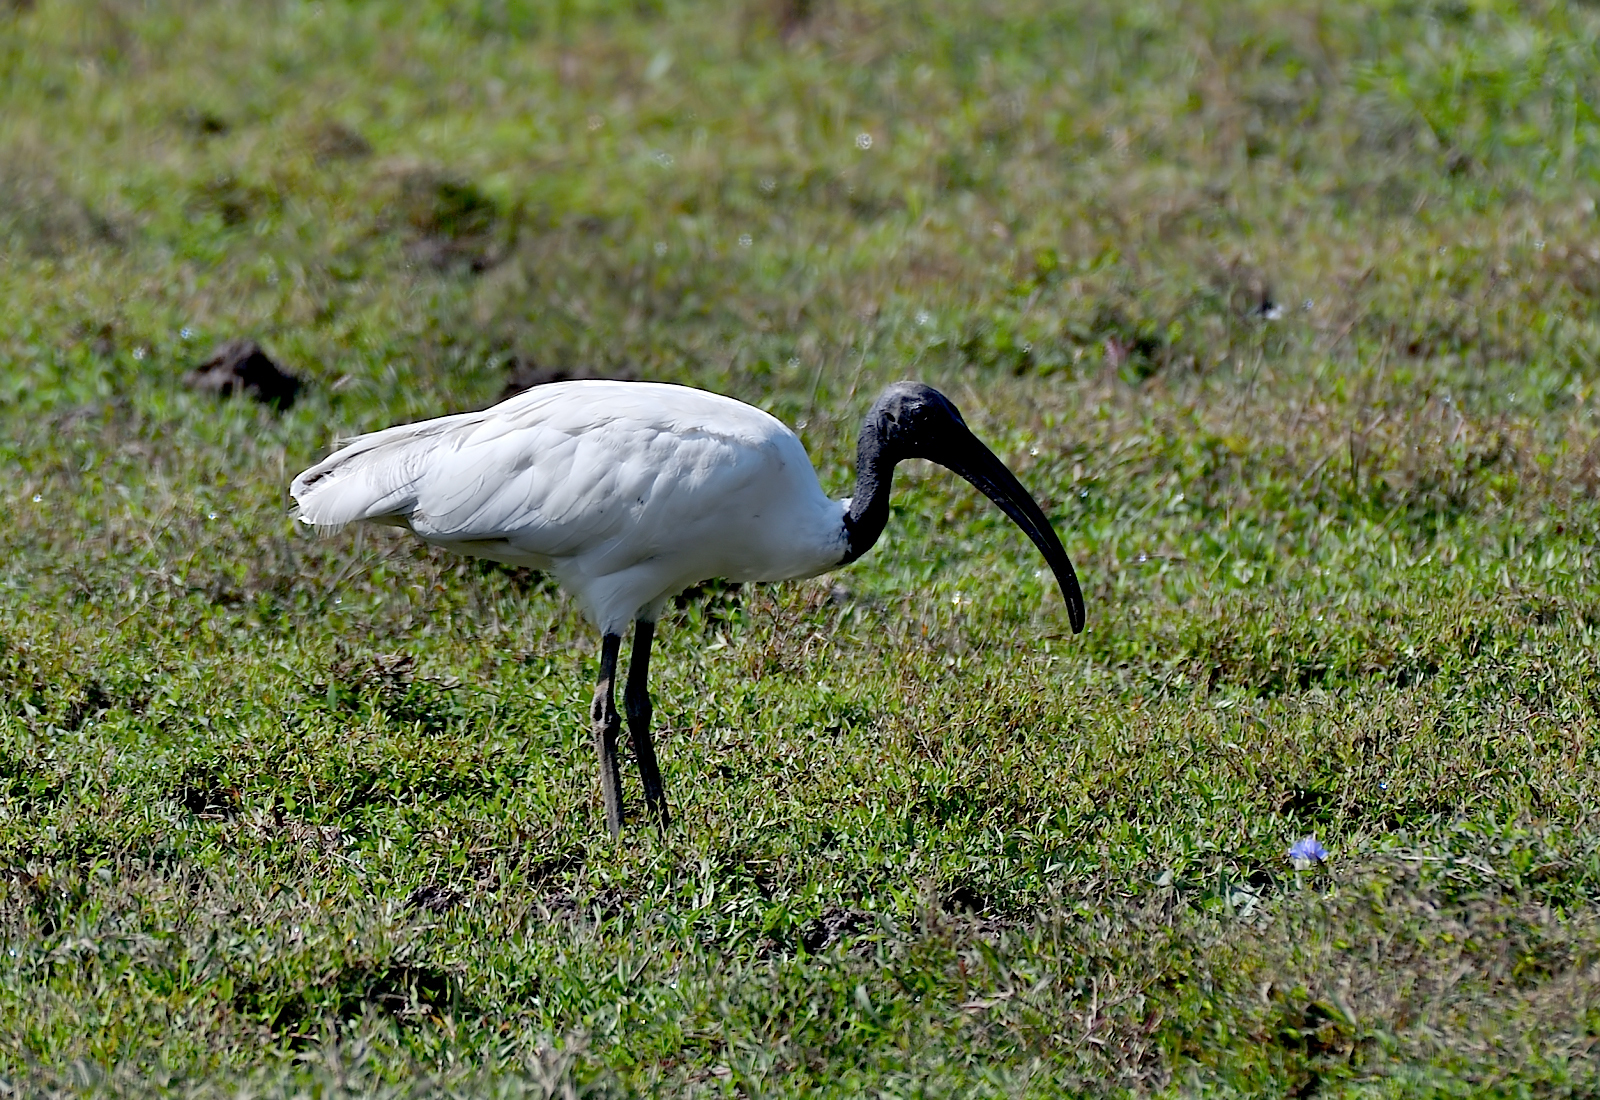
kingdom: Animalia
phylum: Chordata
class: Aves
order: Pelecaniformes
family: Threskiornithidae
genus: Threskiornis
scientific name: Threskiornis melanocephalus
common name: Black-headed ibis
